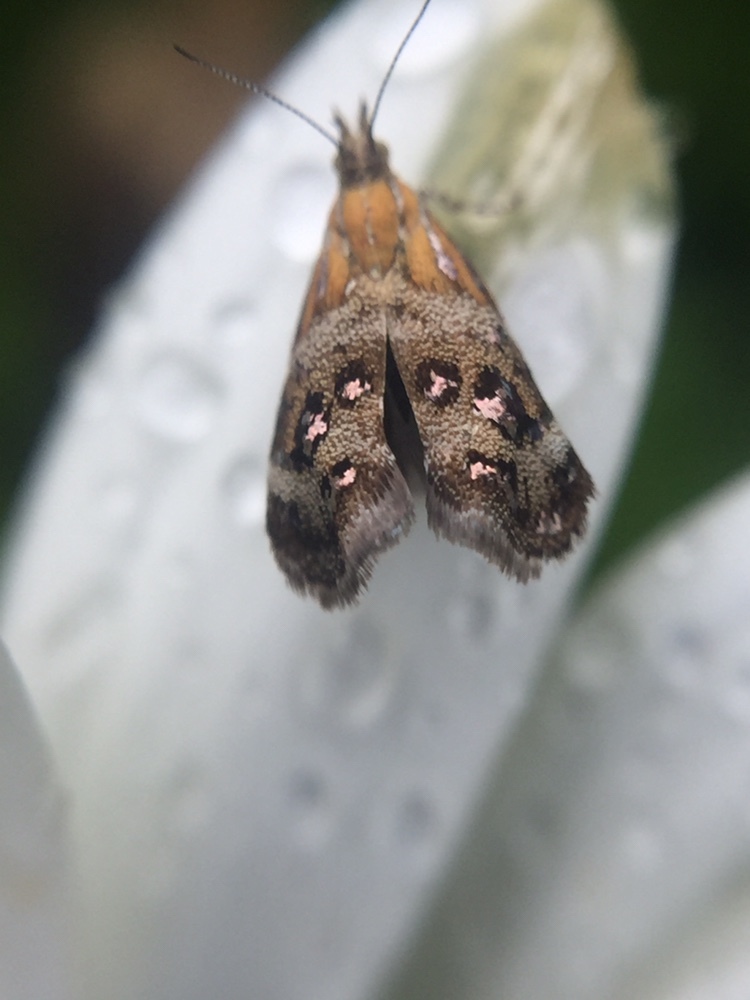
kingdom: Animalia
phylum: Arthropoda
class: Insecta
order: Lepidoptera
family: Choreutidae
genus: Tebenna
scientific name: Tebenna micalis
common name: Vagrant twitcher
